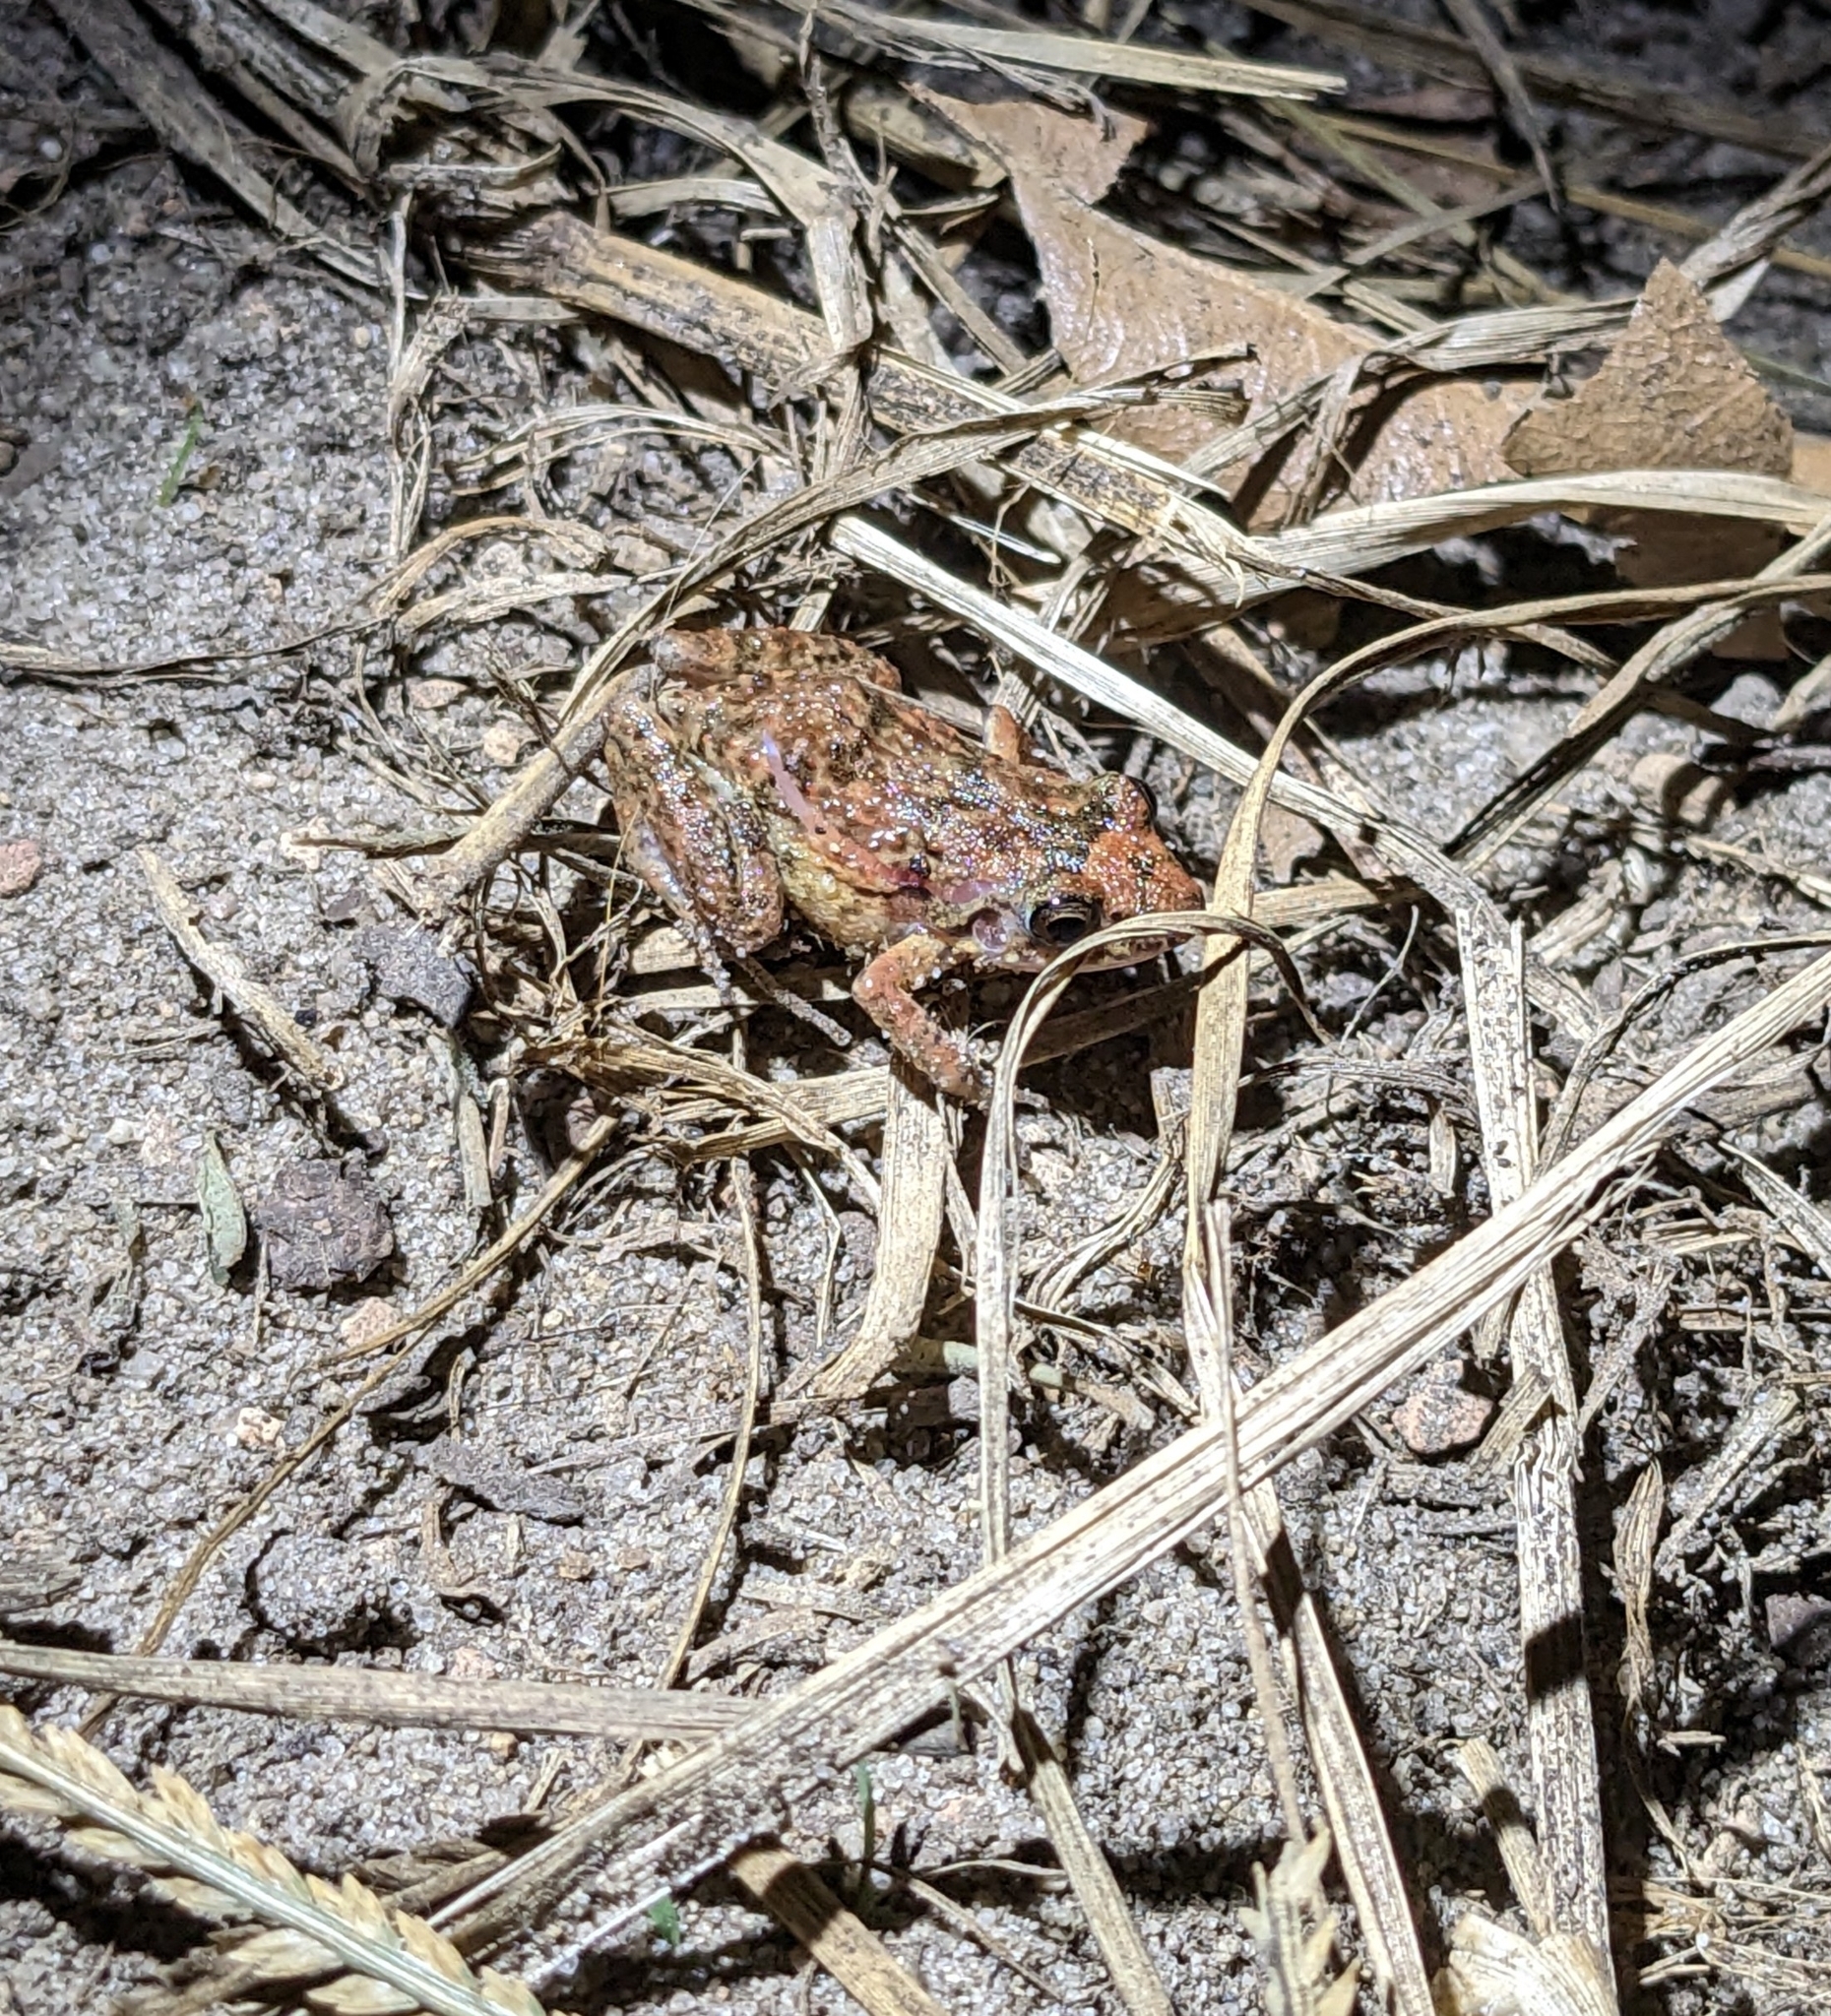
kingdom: Animalia
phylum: Chordata
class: Amphibia
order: Anura
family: Eleutherodactylidae
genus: Eleutherodactylus
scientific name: Eleutherodactylus planirostris
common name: Greenhouse frog
